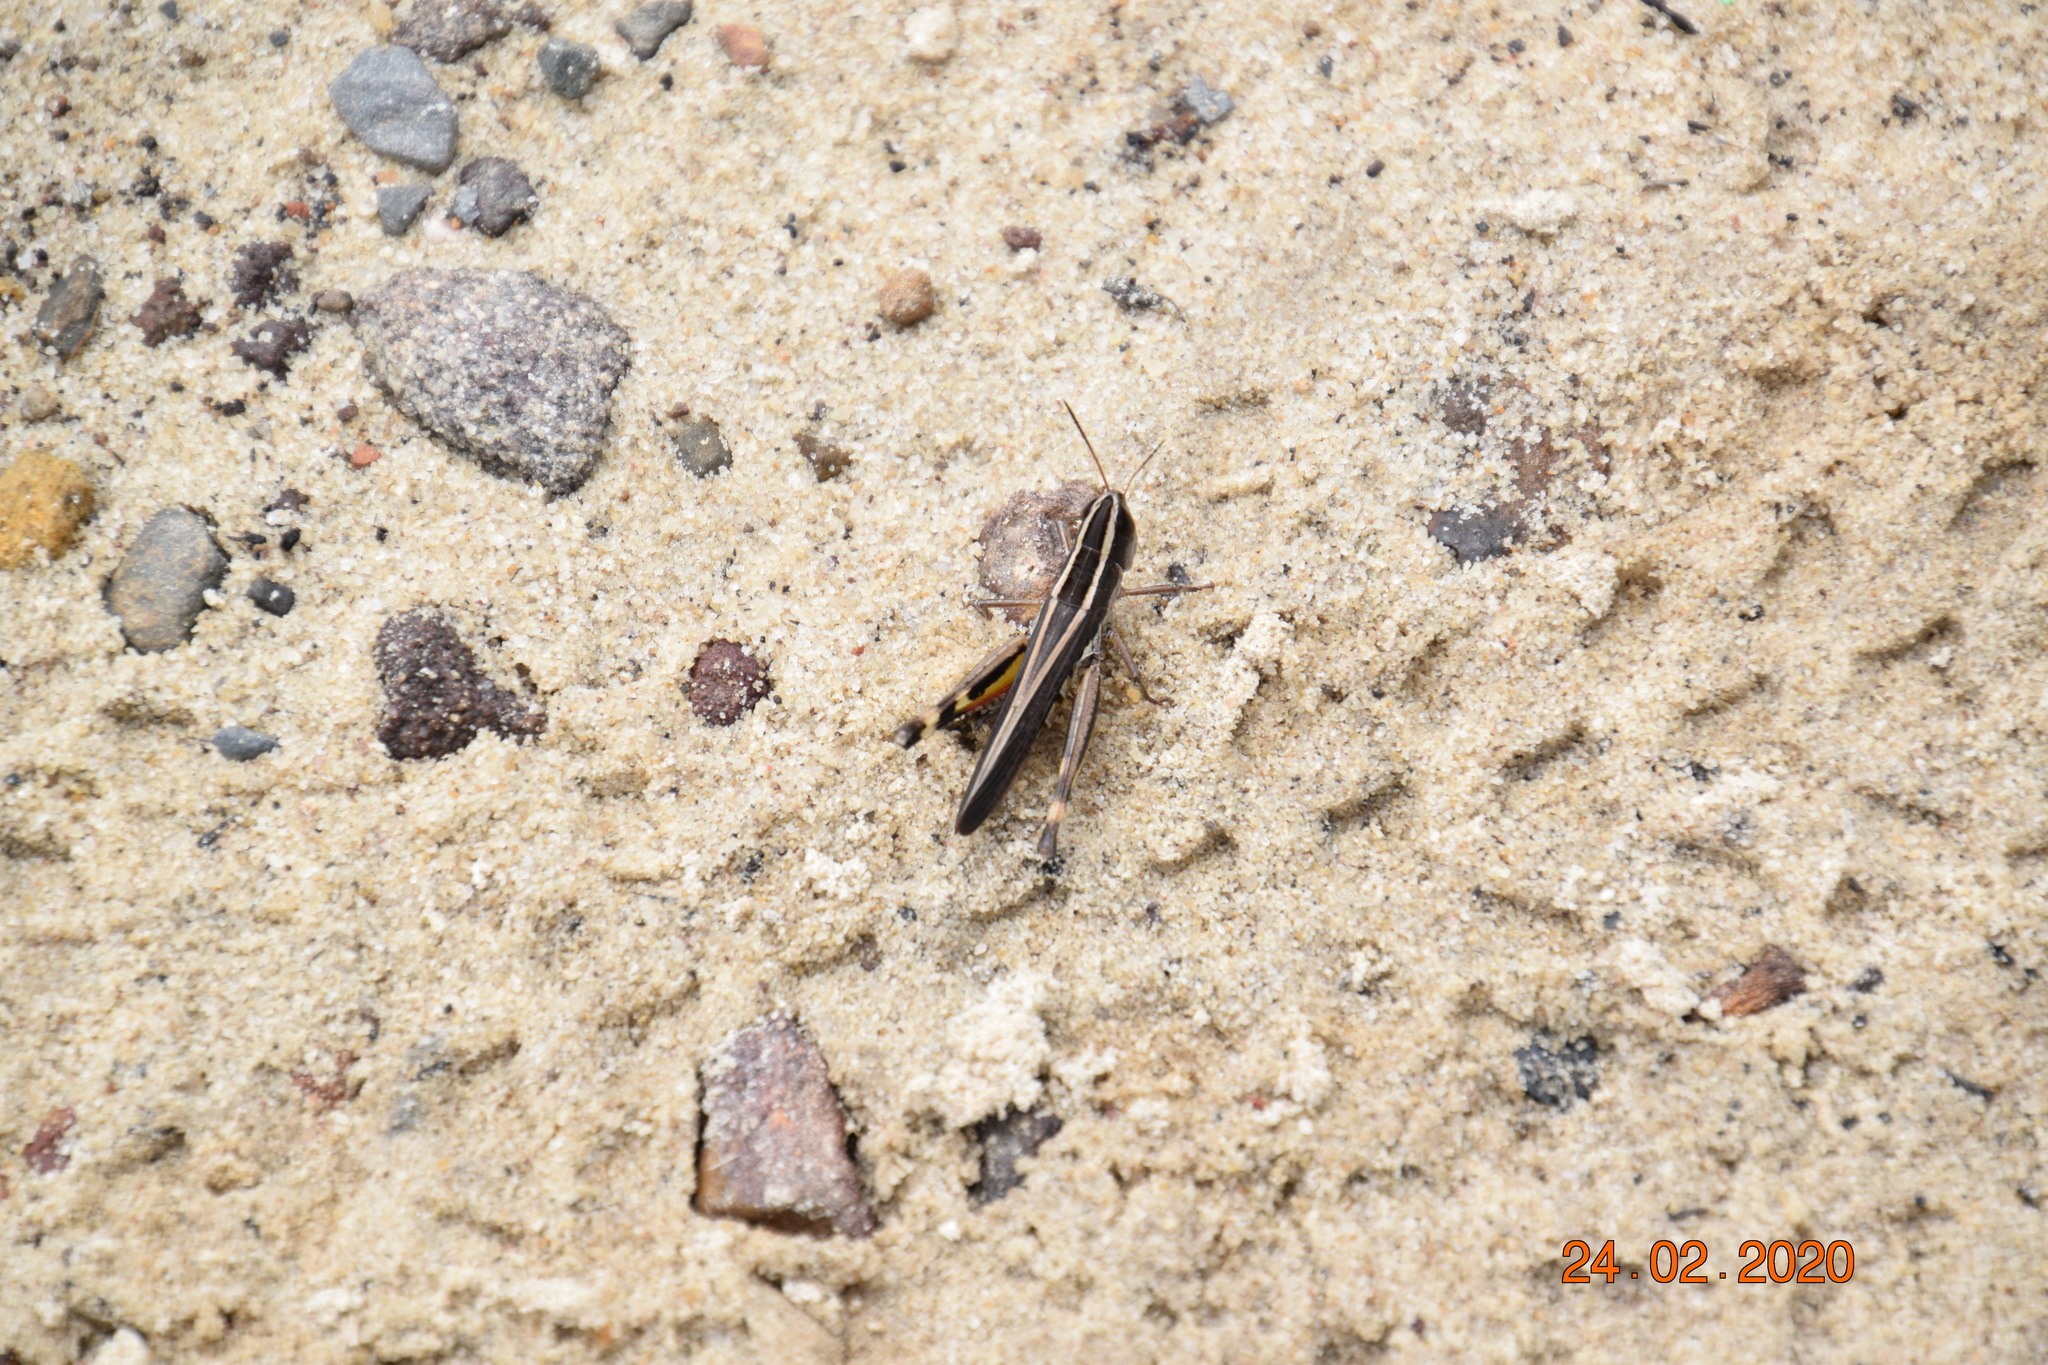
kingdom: Animalia
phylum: Arthropoda
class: Insecta
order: Orthoptera
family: Acrididae
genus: Macrotona
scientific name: Macrotona securiformis
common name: Inland macrotona
